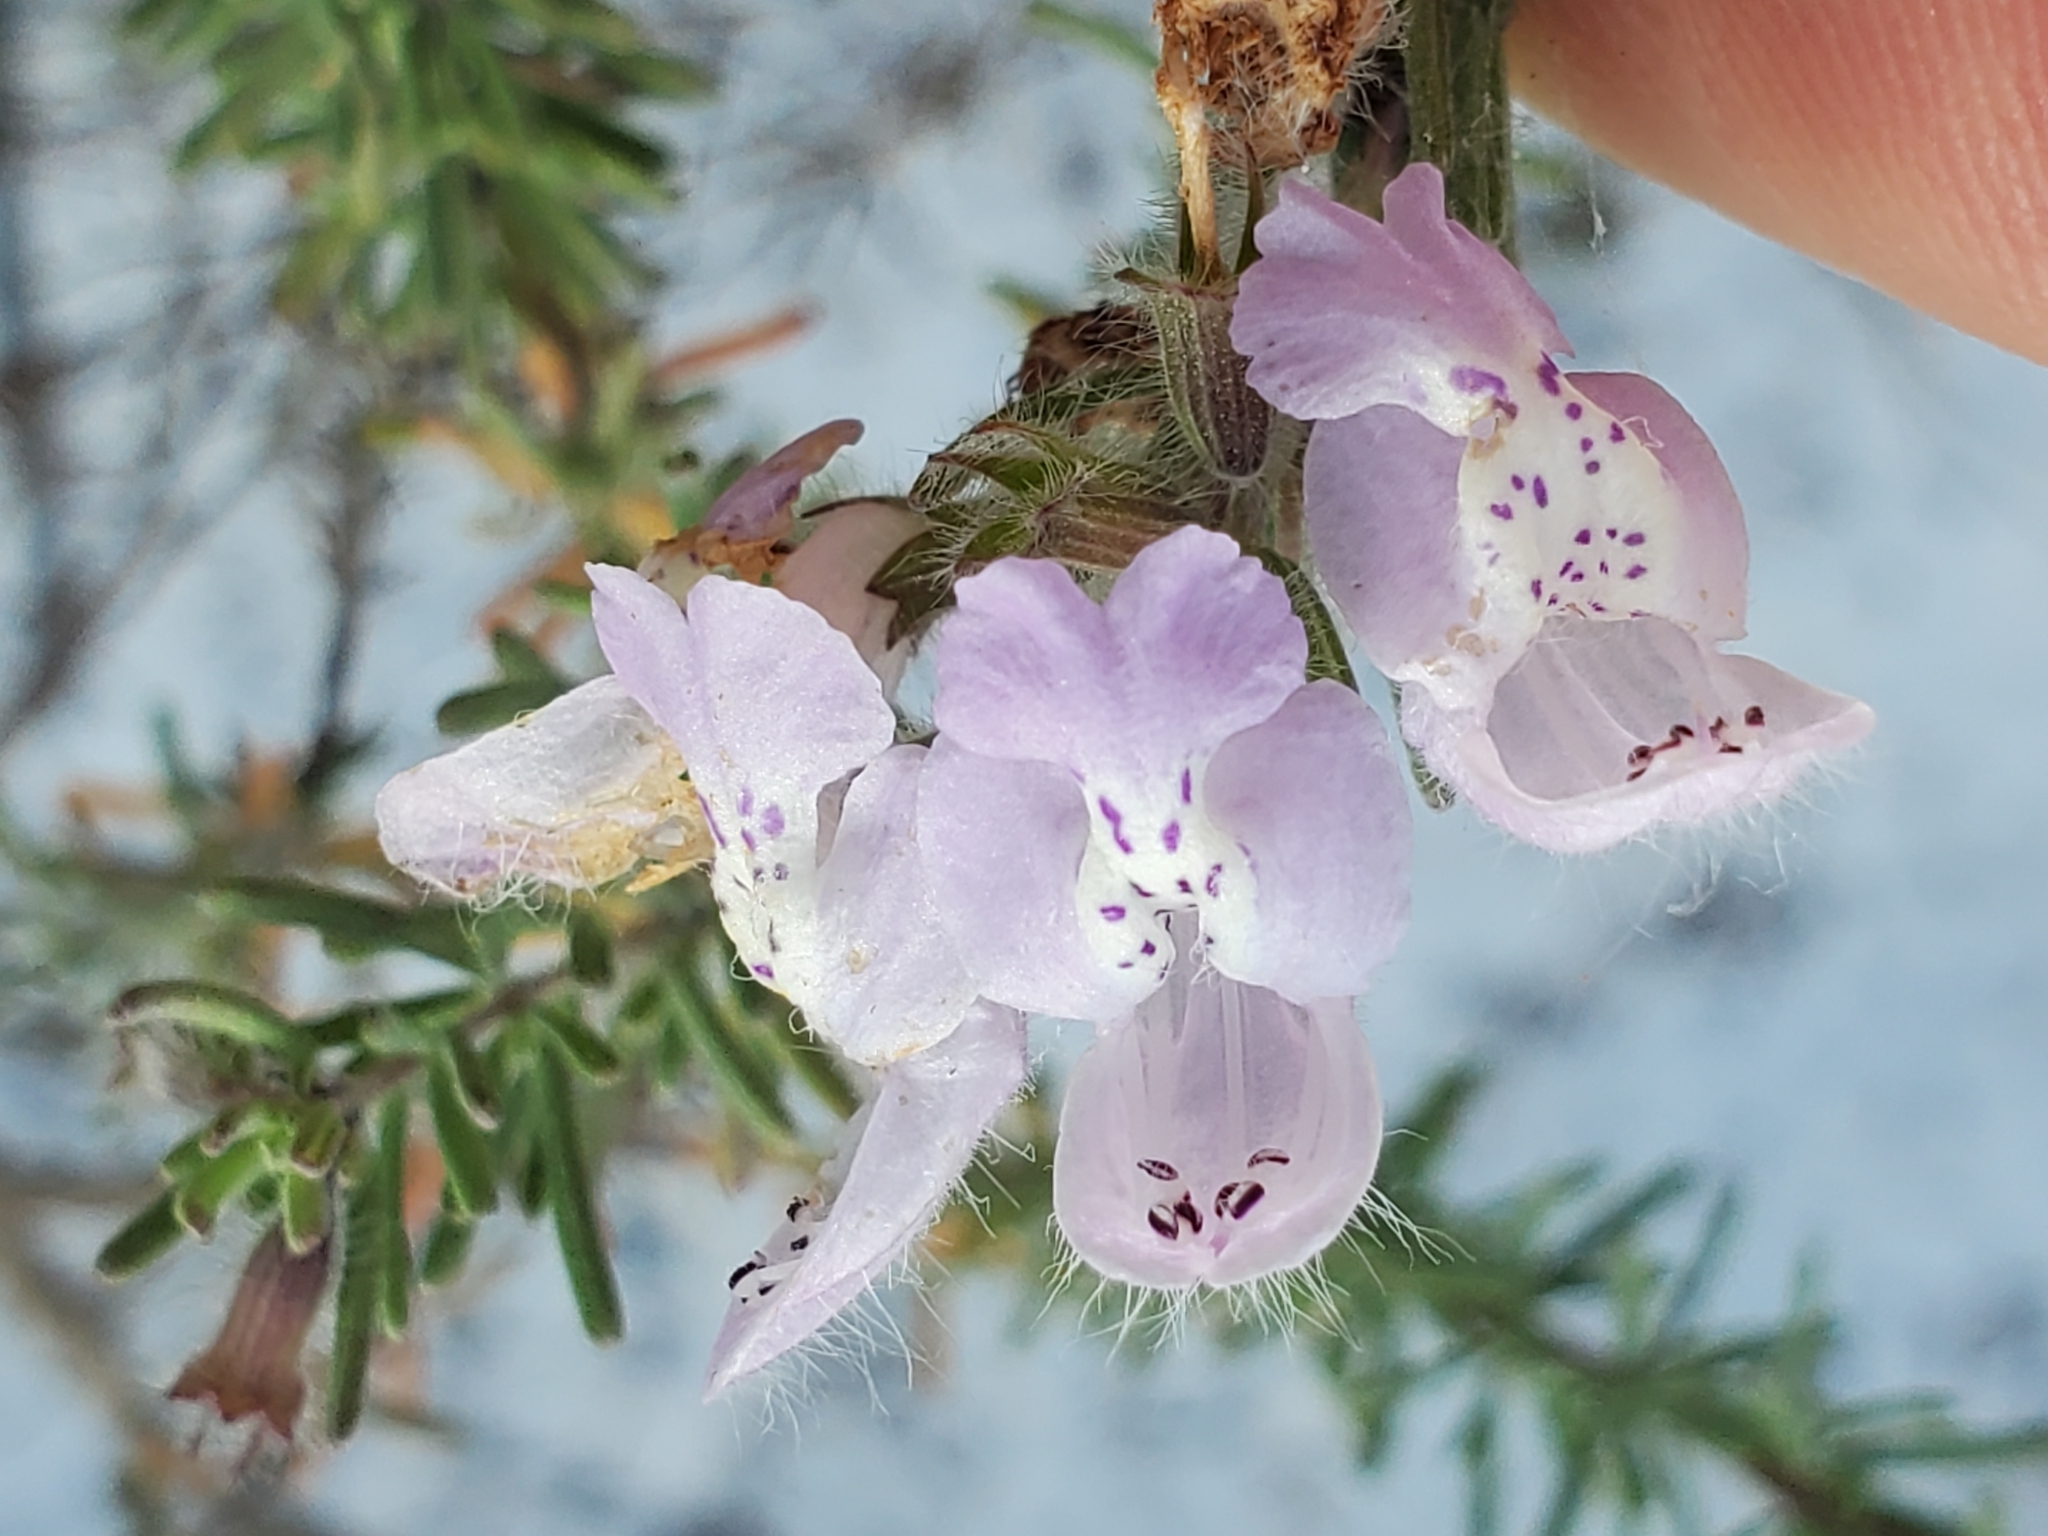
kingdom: Plantae
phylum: Tracheophyta
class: Magnoliopsida
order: Lamiales
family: Lamiaceae
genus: Conradina
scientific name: Conradina canescens
